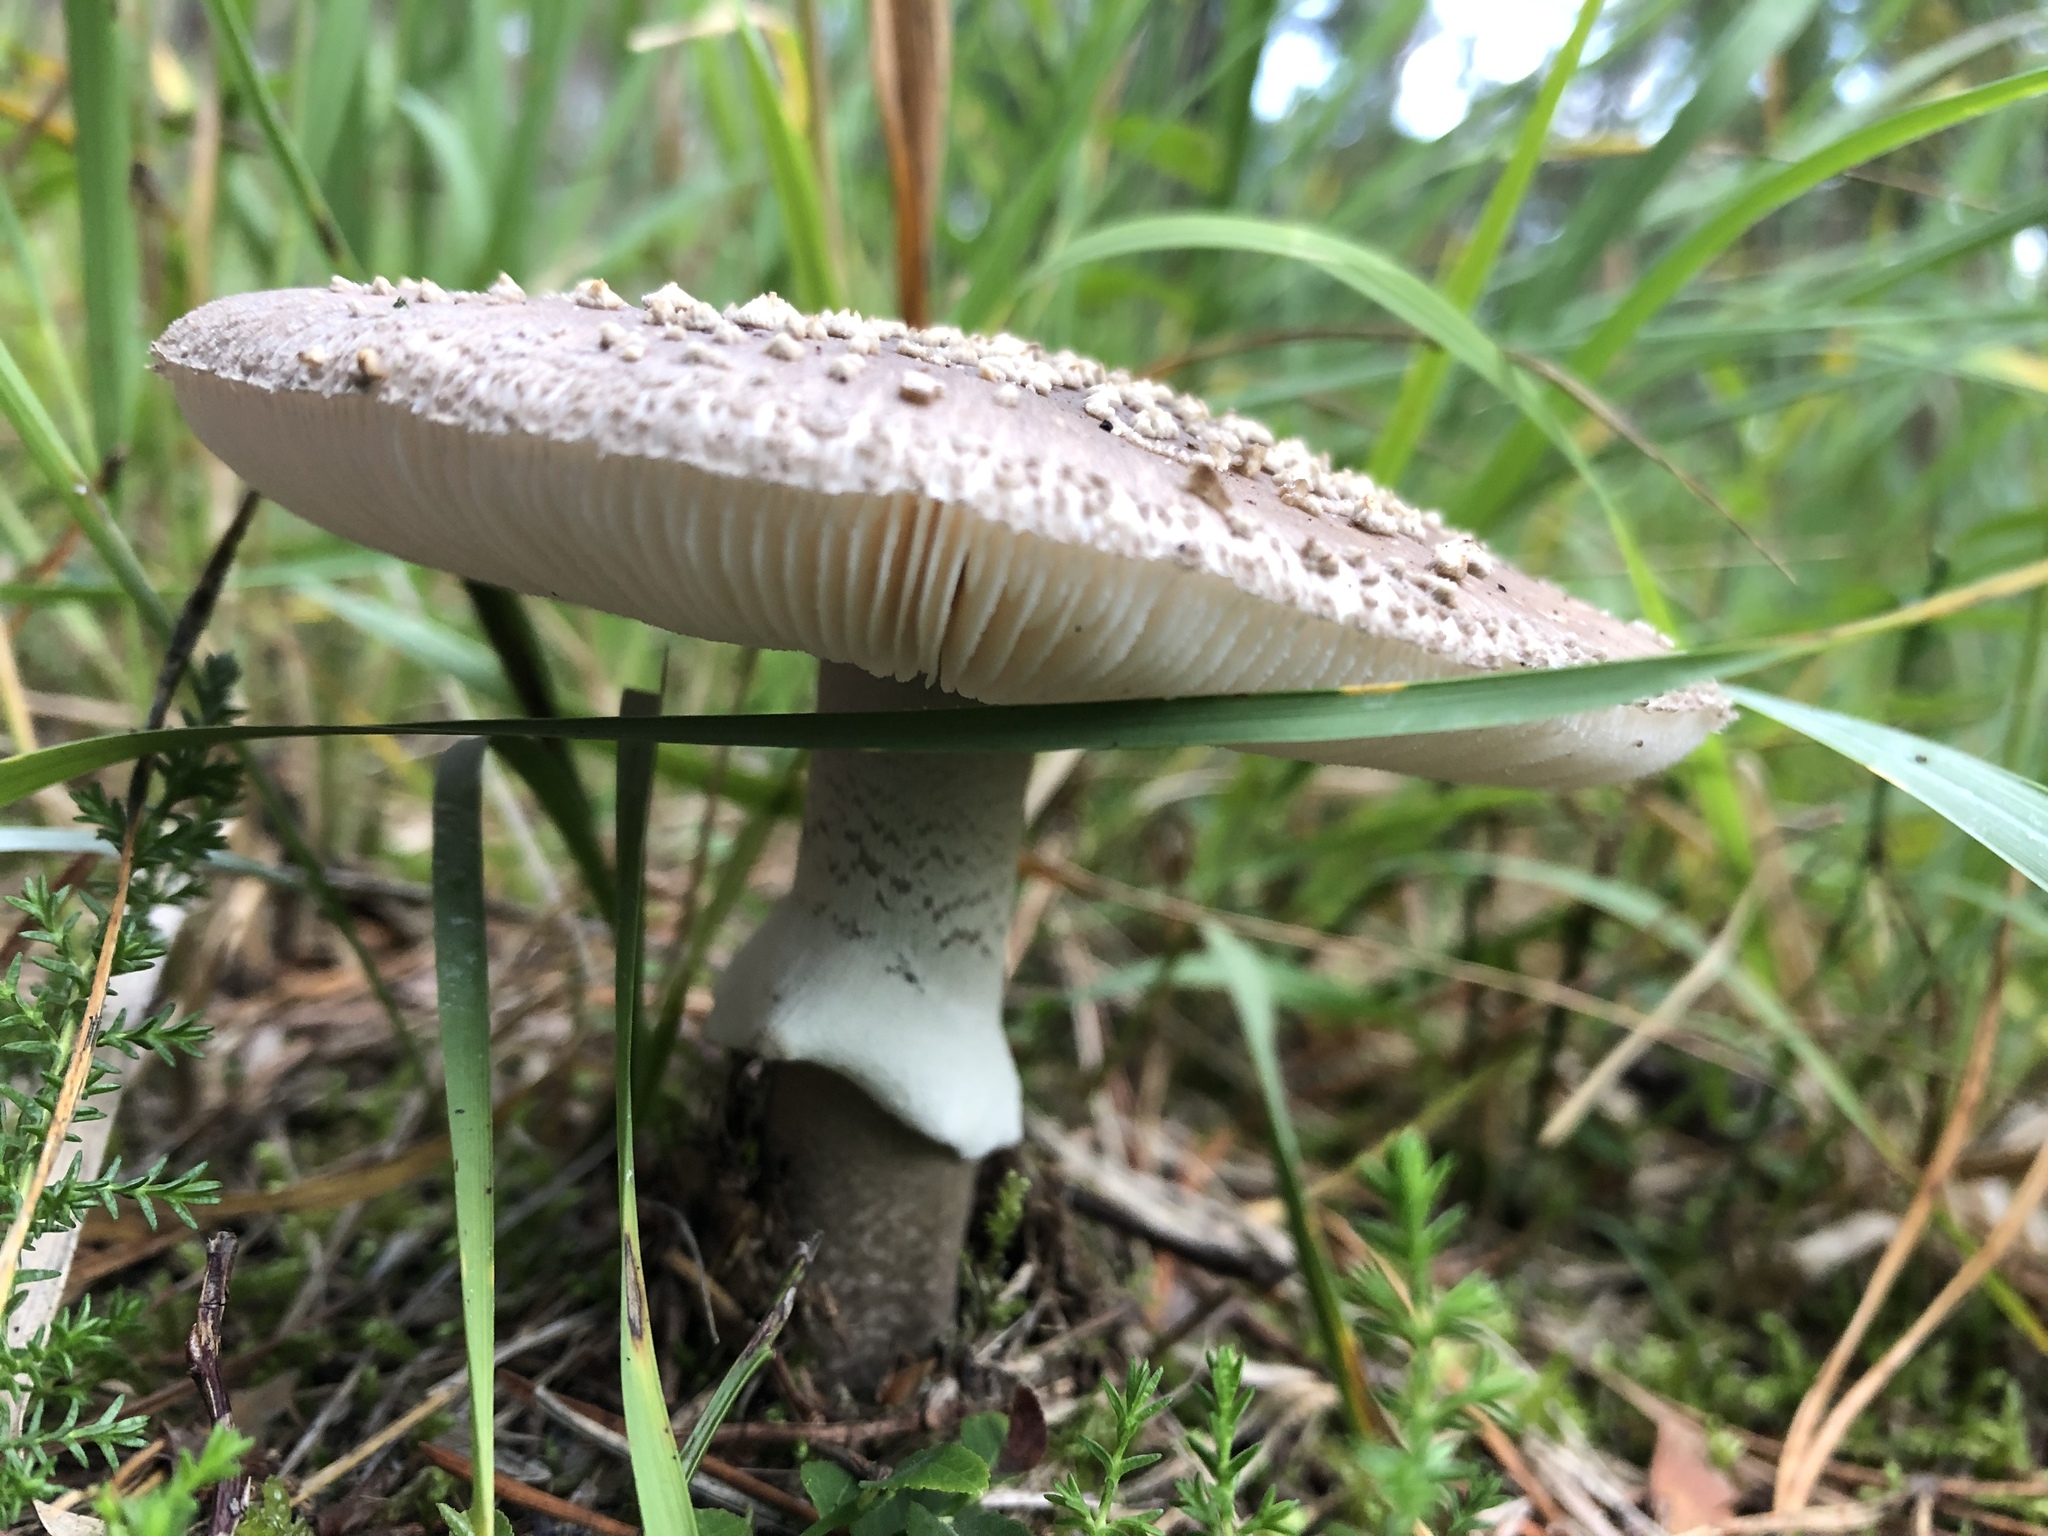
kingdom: Fungi
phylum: Basidiomycota
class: Agaricomycetes
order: Agaricales
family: Amanitaceae
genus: Amanita
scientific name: Amanita excelsa
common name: European false blusher
